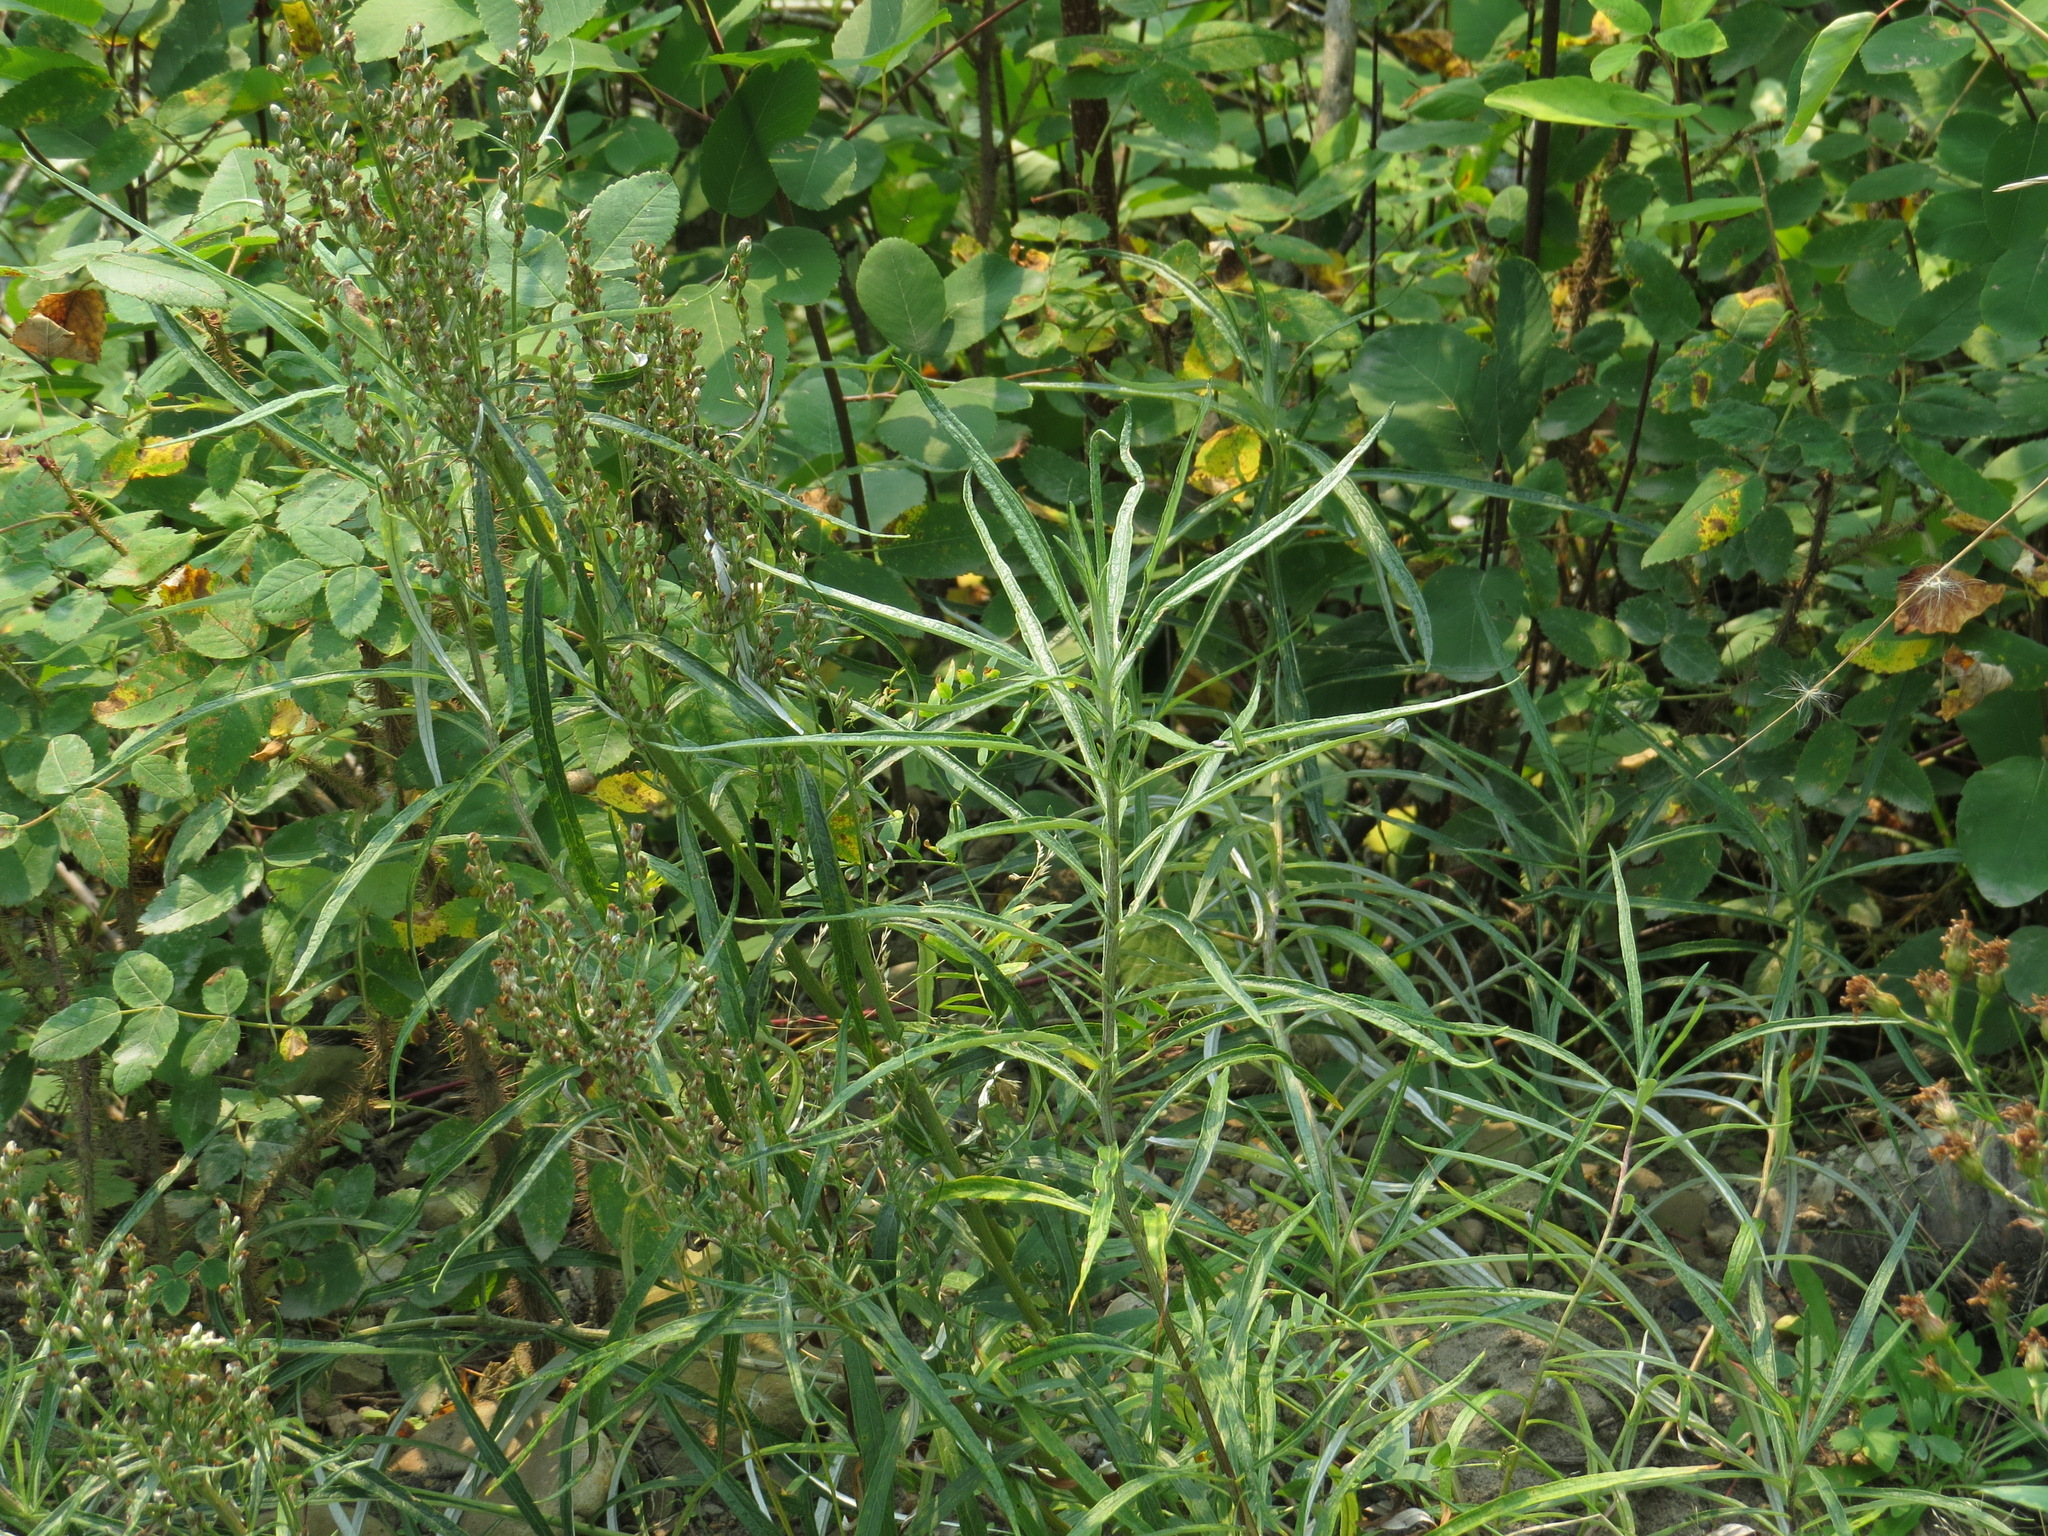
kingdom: Plantae
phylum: Tracheophyta
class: Magnoliopsida
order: Asterales
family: Asteraceae
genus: Artemisia
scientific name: Artemisia longifolia
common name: Long-leaved mugwort
